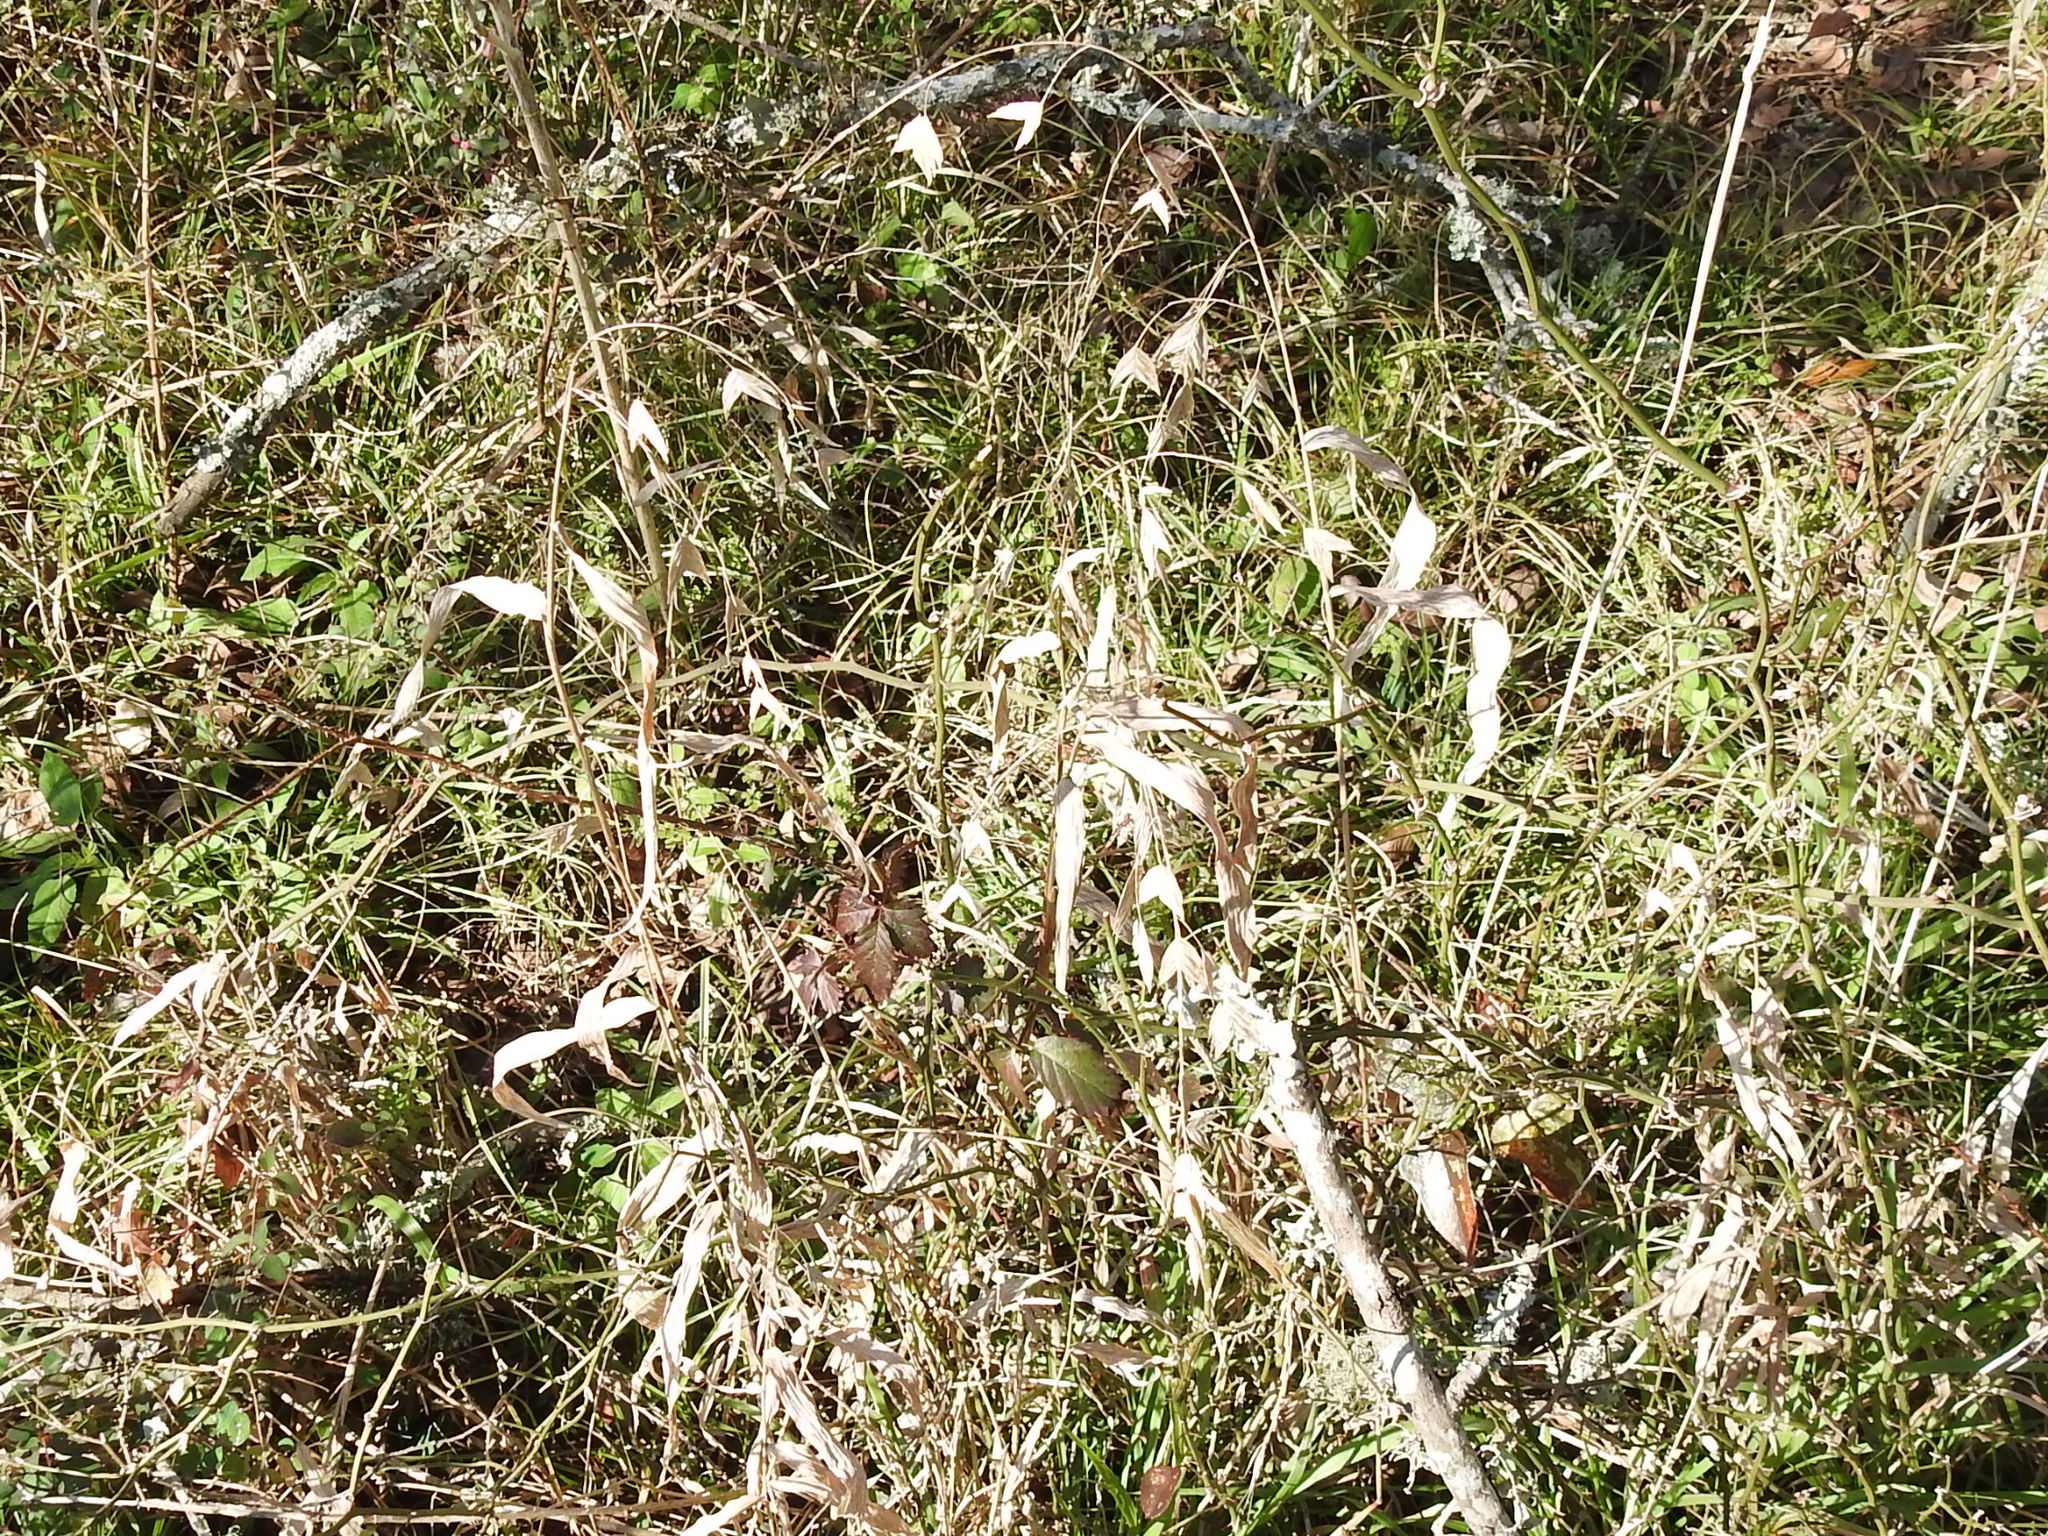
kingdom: Plantae
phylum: Tracheophyta
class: Liliopsida
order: Poales
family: Poaceae
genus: Chasmanthium
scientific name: Chasmanthium latifolium
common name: Broad-leaved chasmanthium
